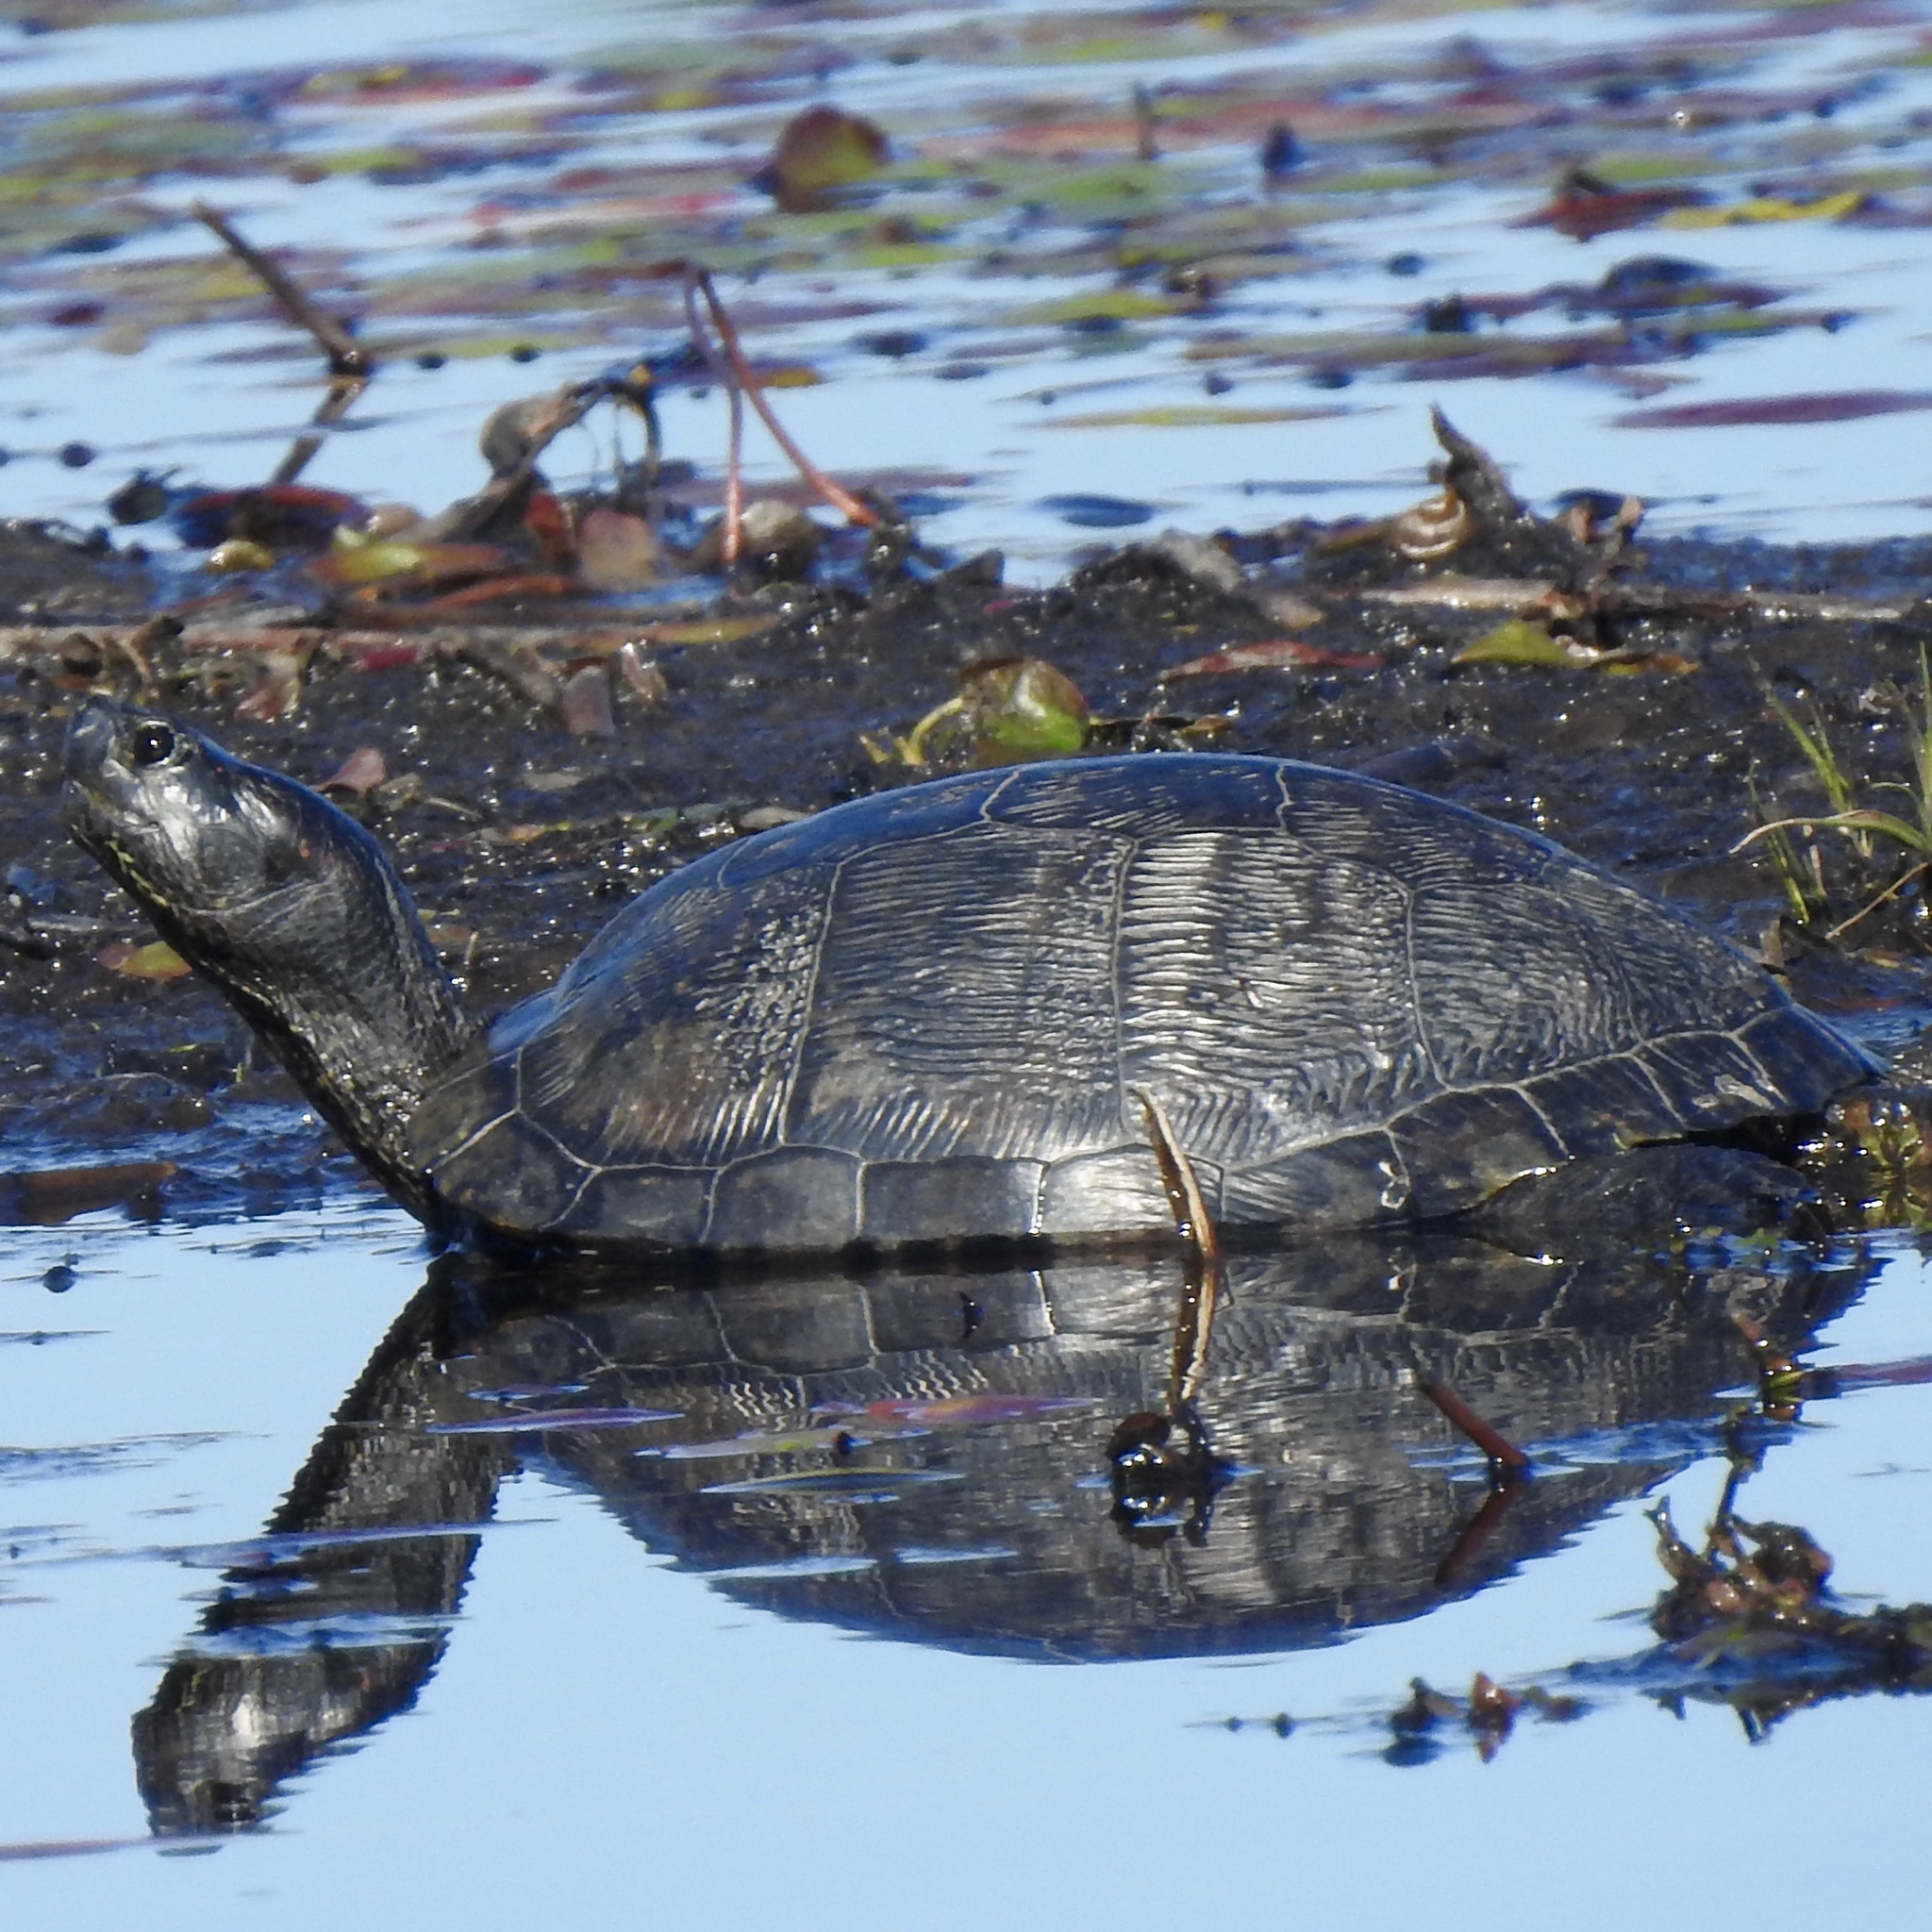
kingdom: Animalia
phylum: Chordata
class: Testudines
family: Emydidae
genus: Trachemys
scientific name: Trachemys scripta
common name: Slider
